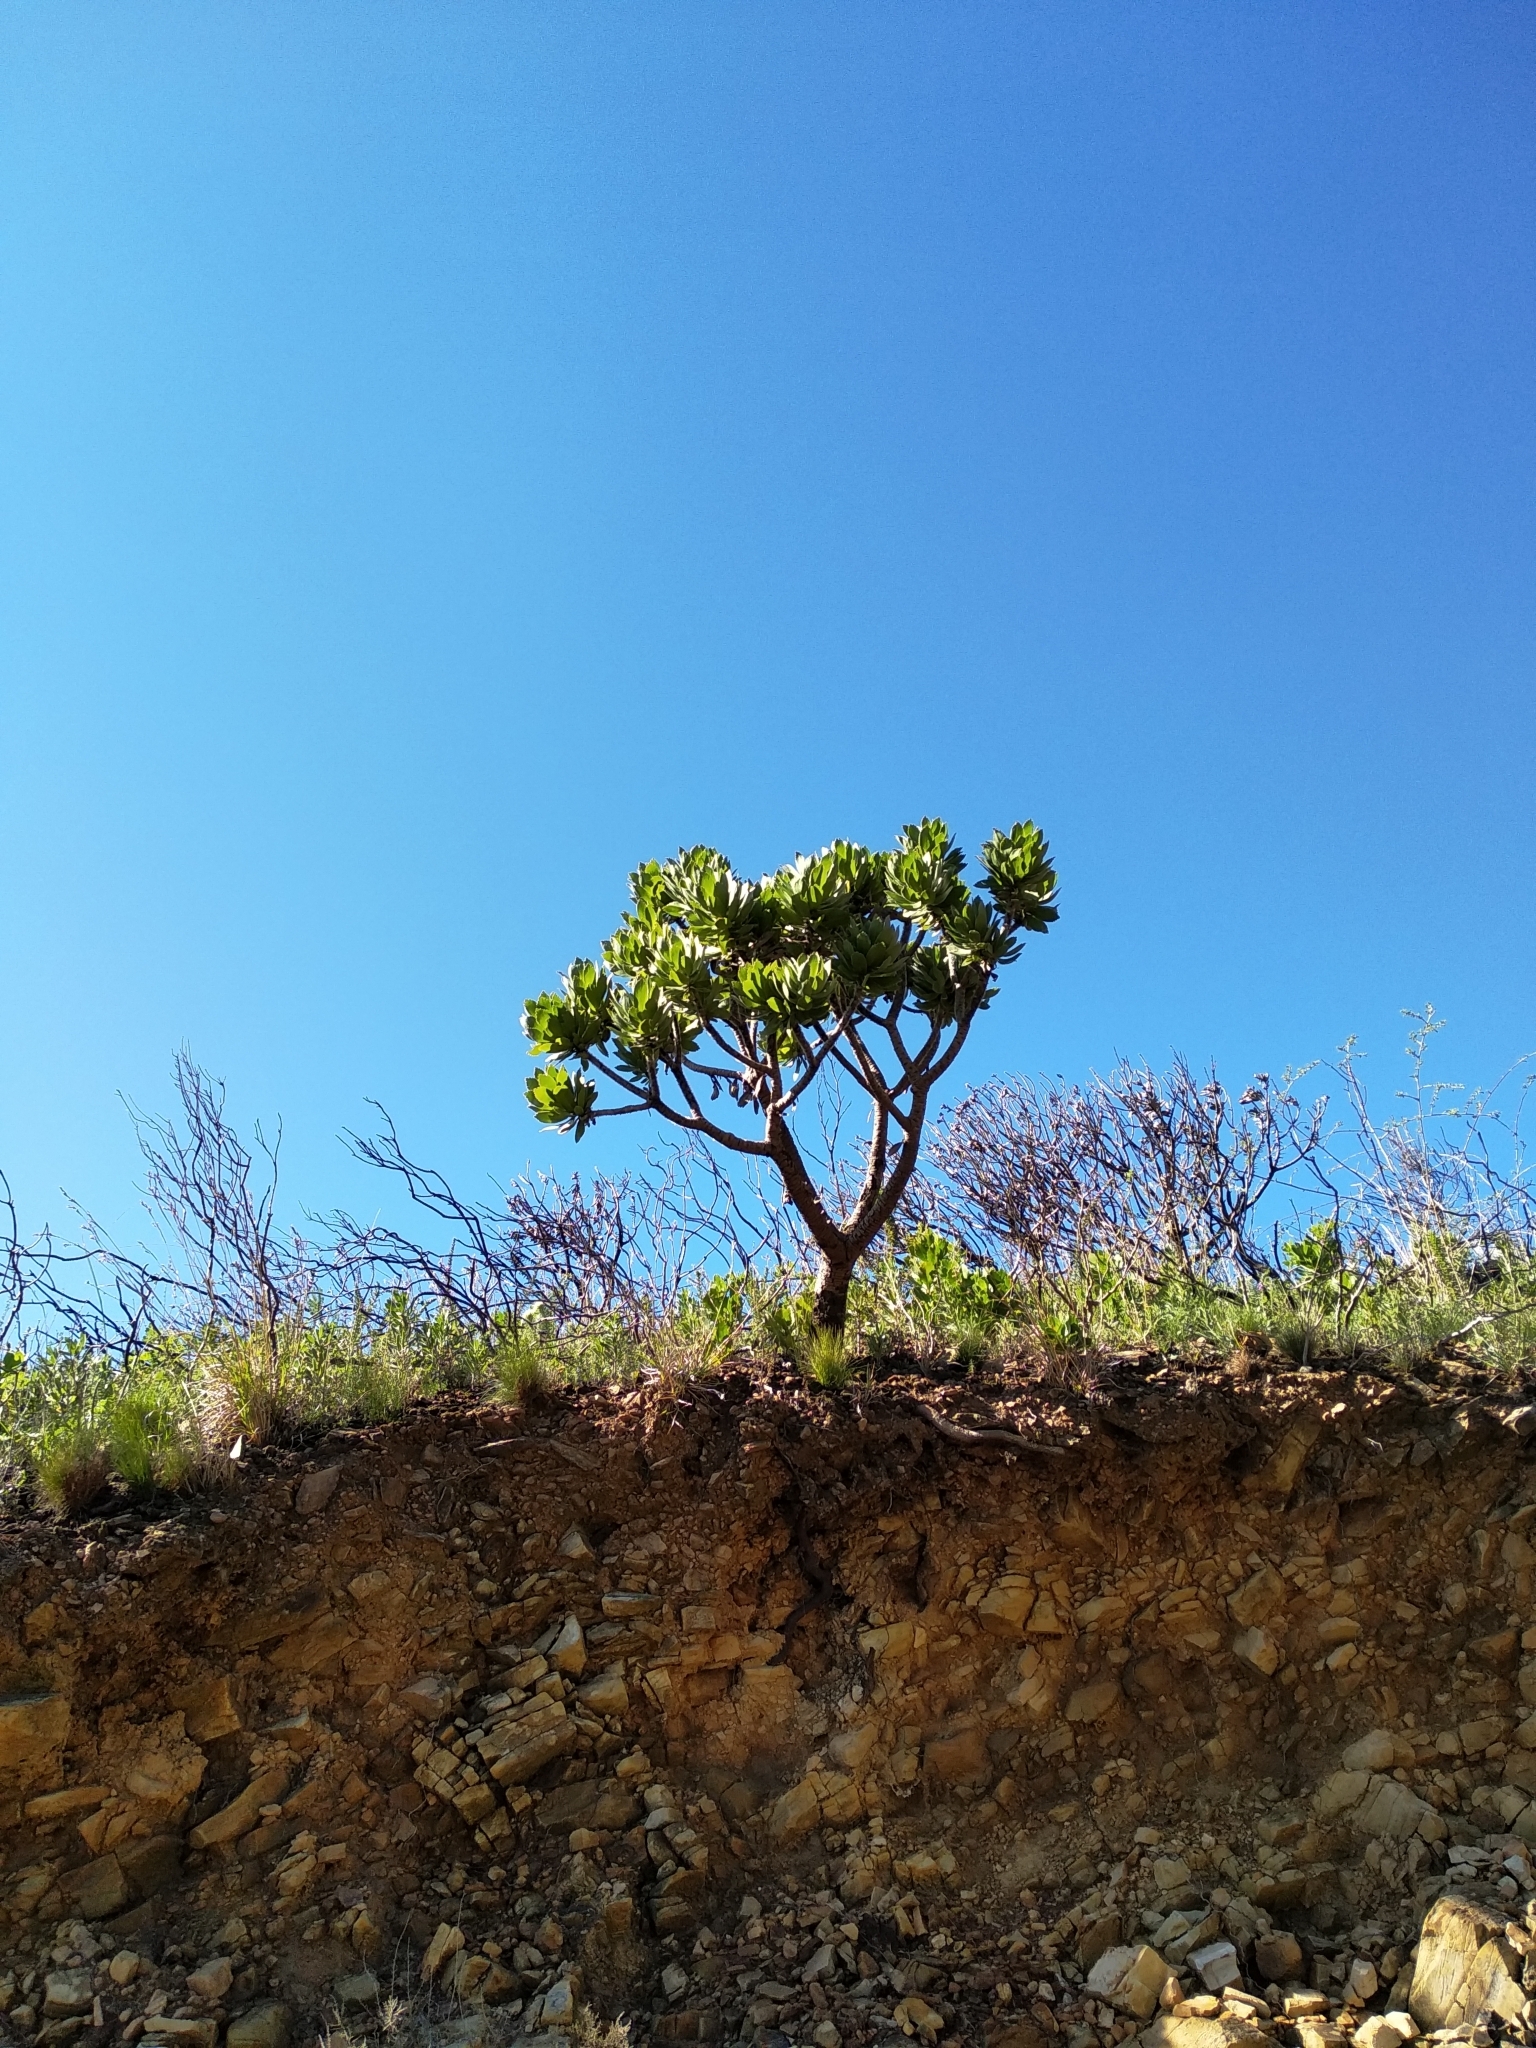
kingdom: Plantae
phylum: Tracheophyta
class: Magnoliopsida
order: Proteales
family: Proteaceae
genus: Leucospermum
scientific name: Leucospermum conocarpodendron
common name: Tree pincushion
